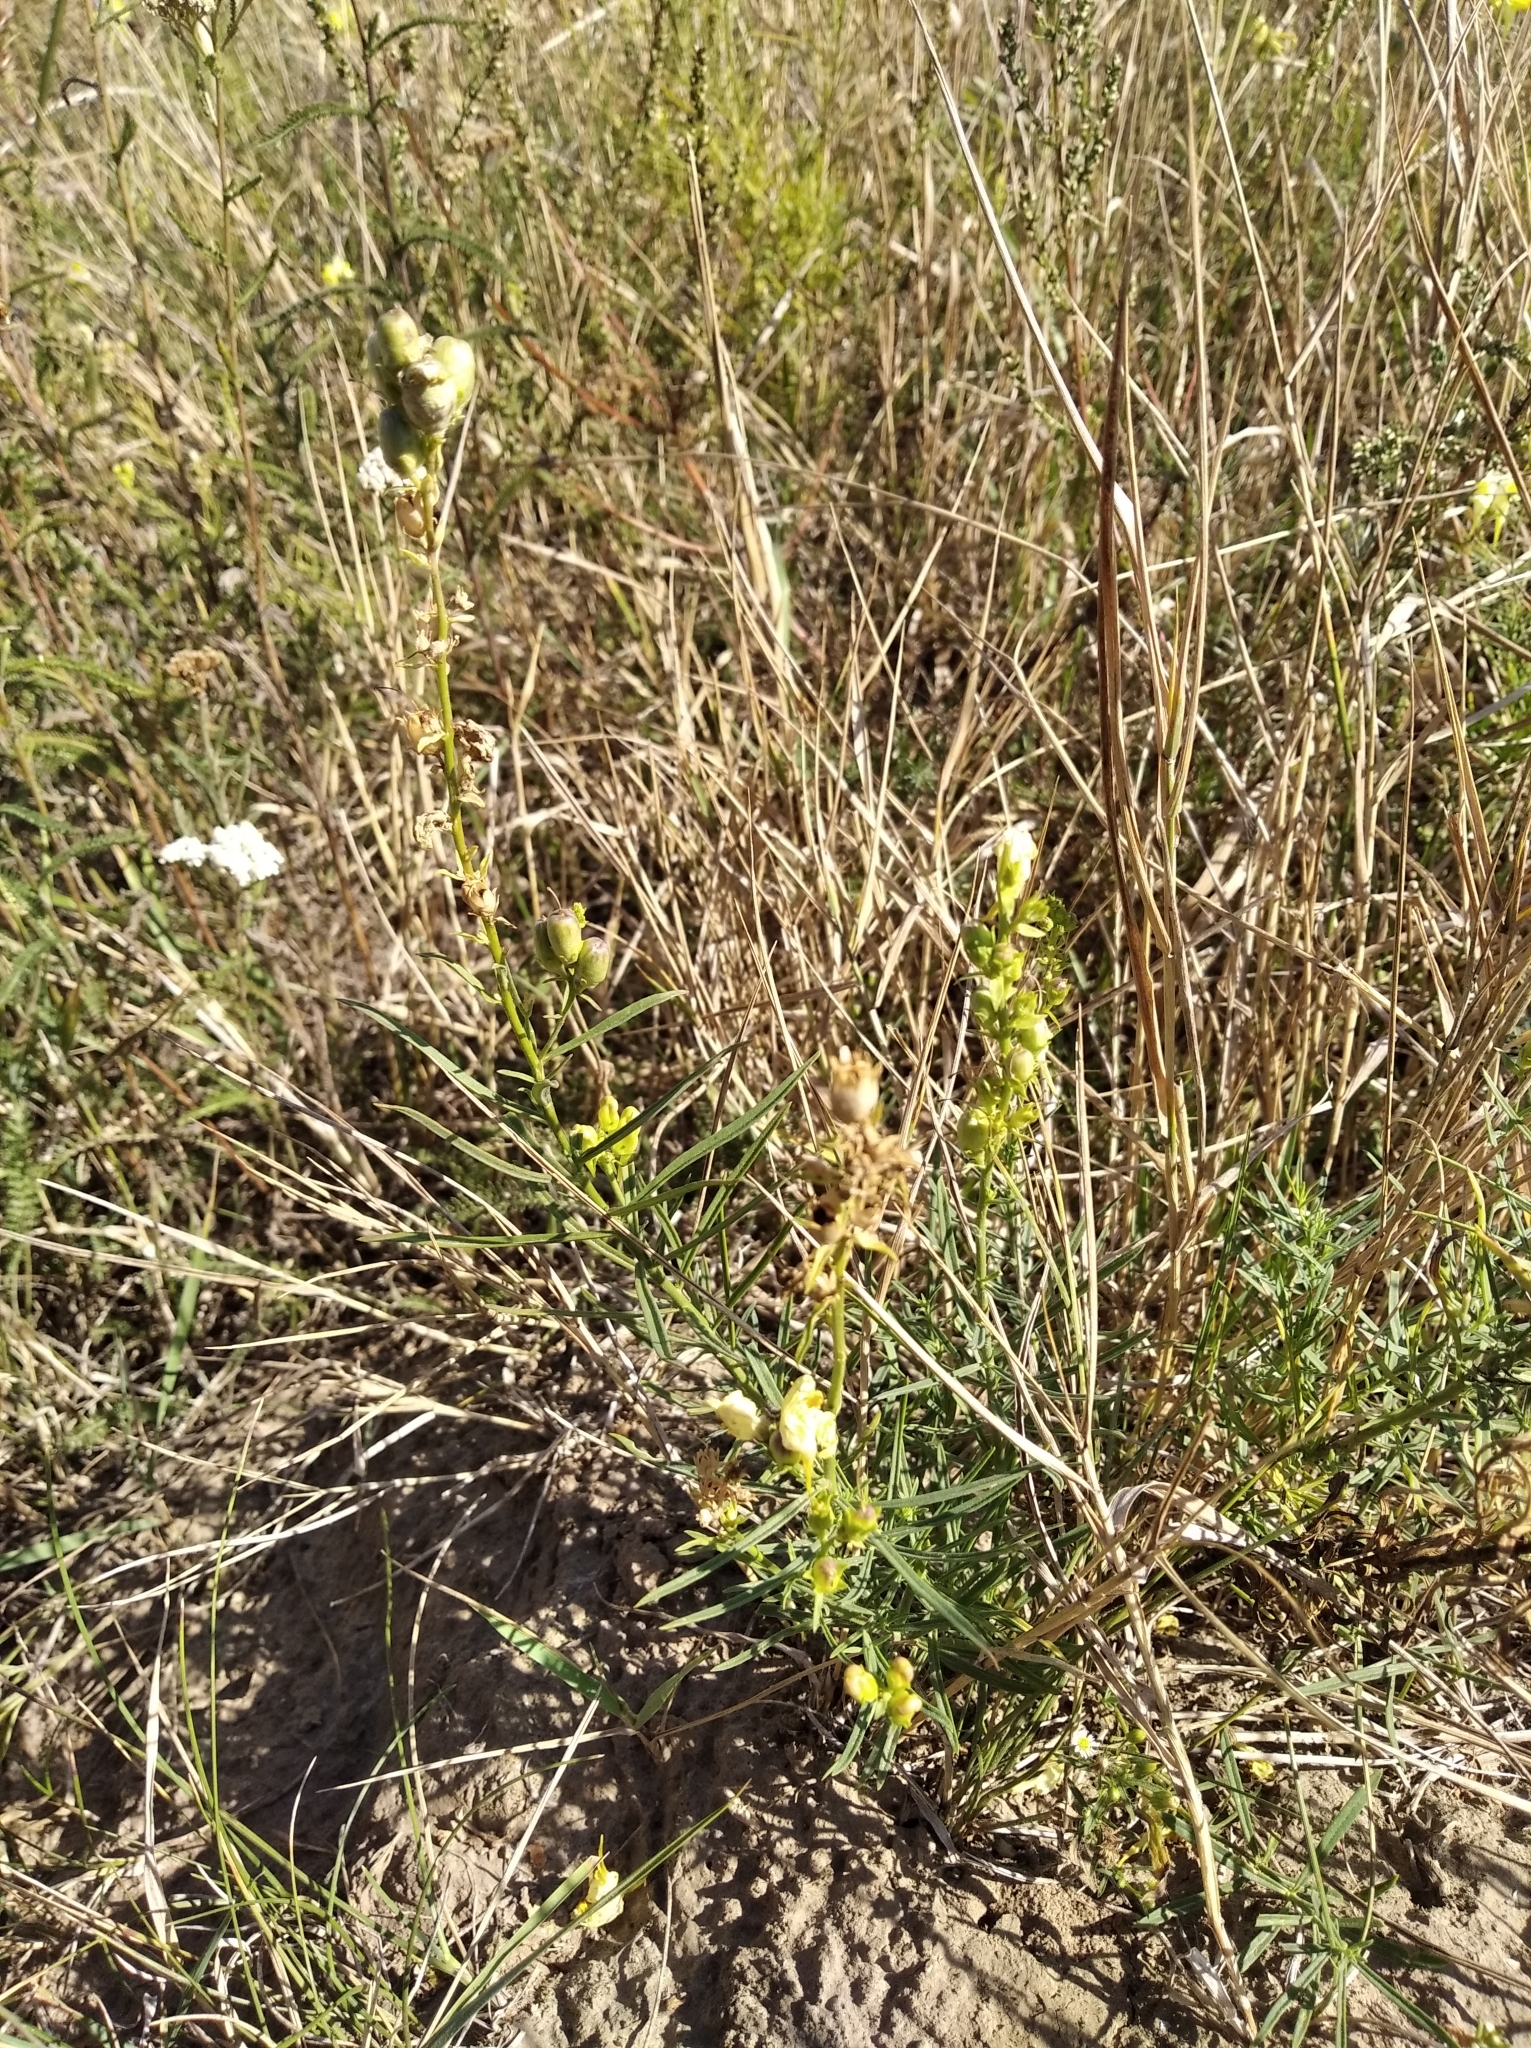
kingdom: Plantae
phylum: Tracheophyta
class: Magnoliopsida
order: Lamiales
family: Plantaginaceae
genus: Linaria
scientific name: Linaria vulgaris
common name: Butter and eggs
